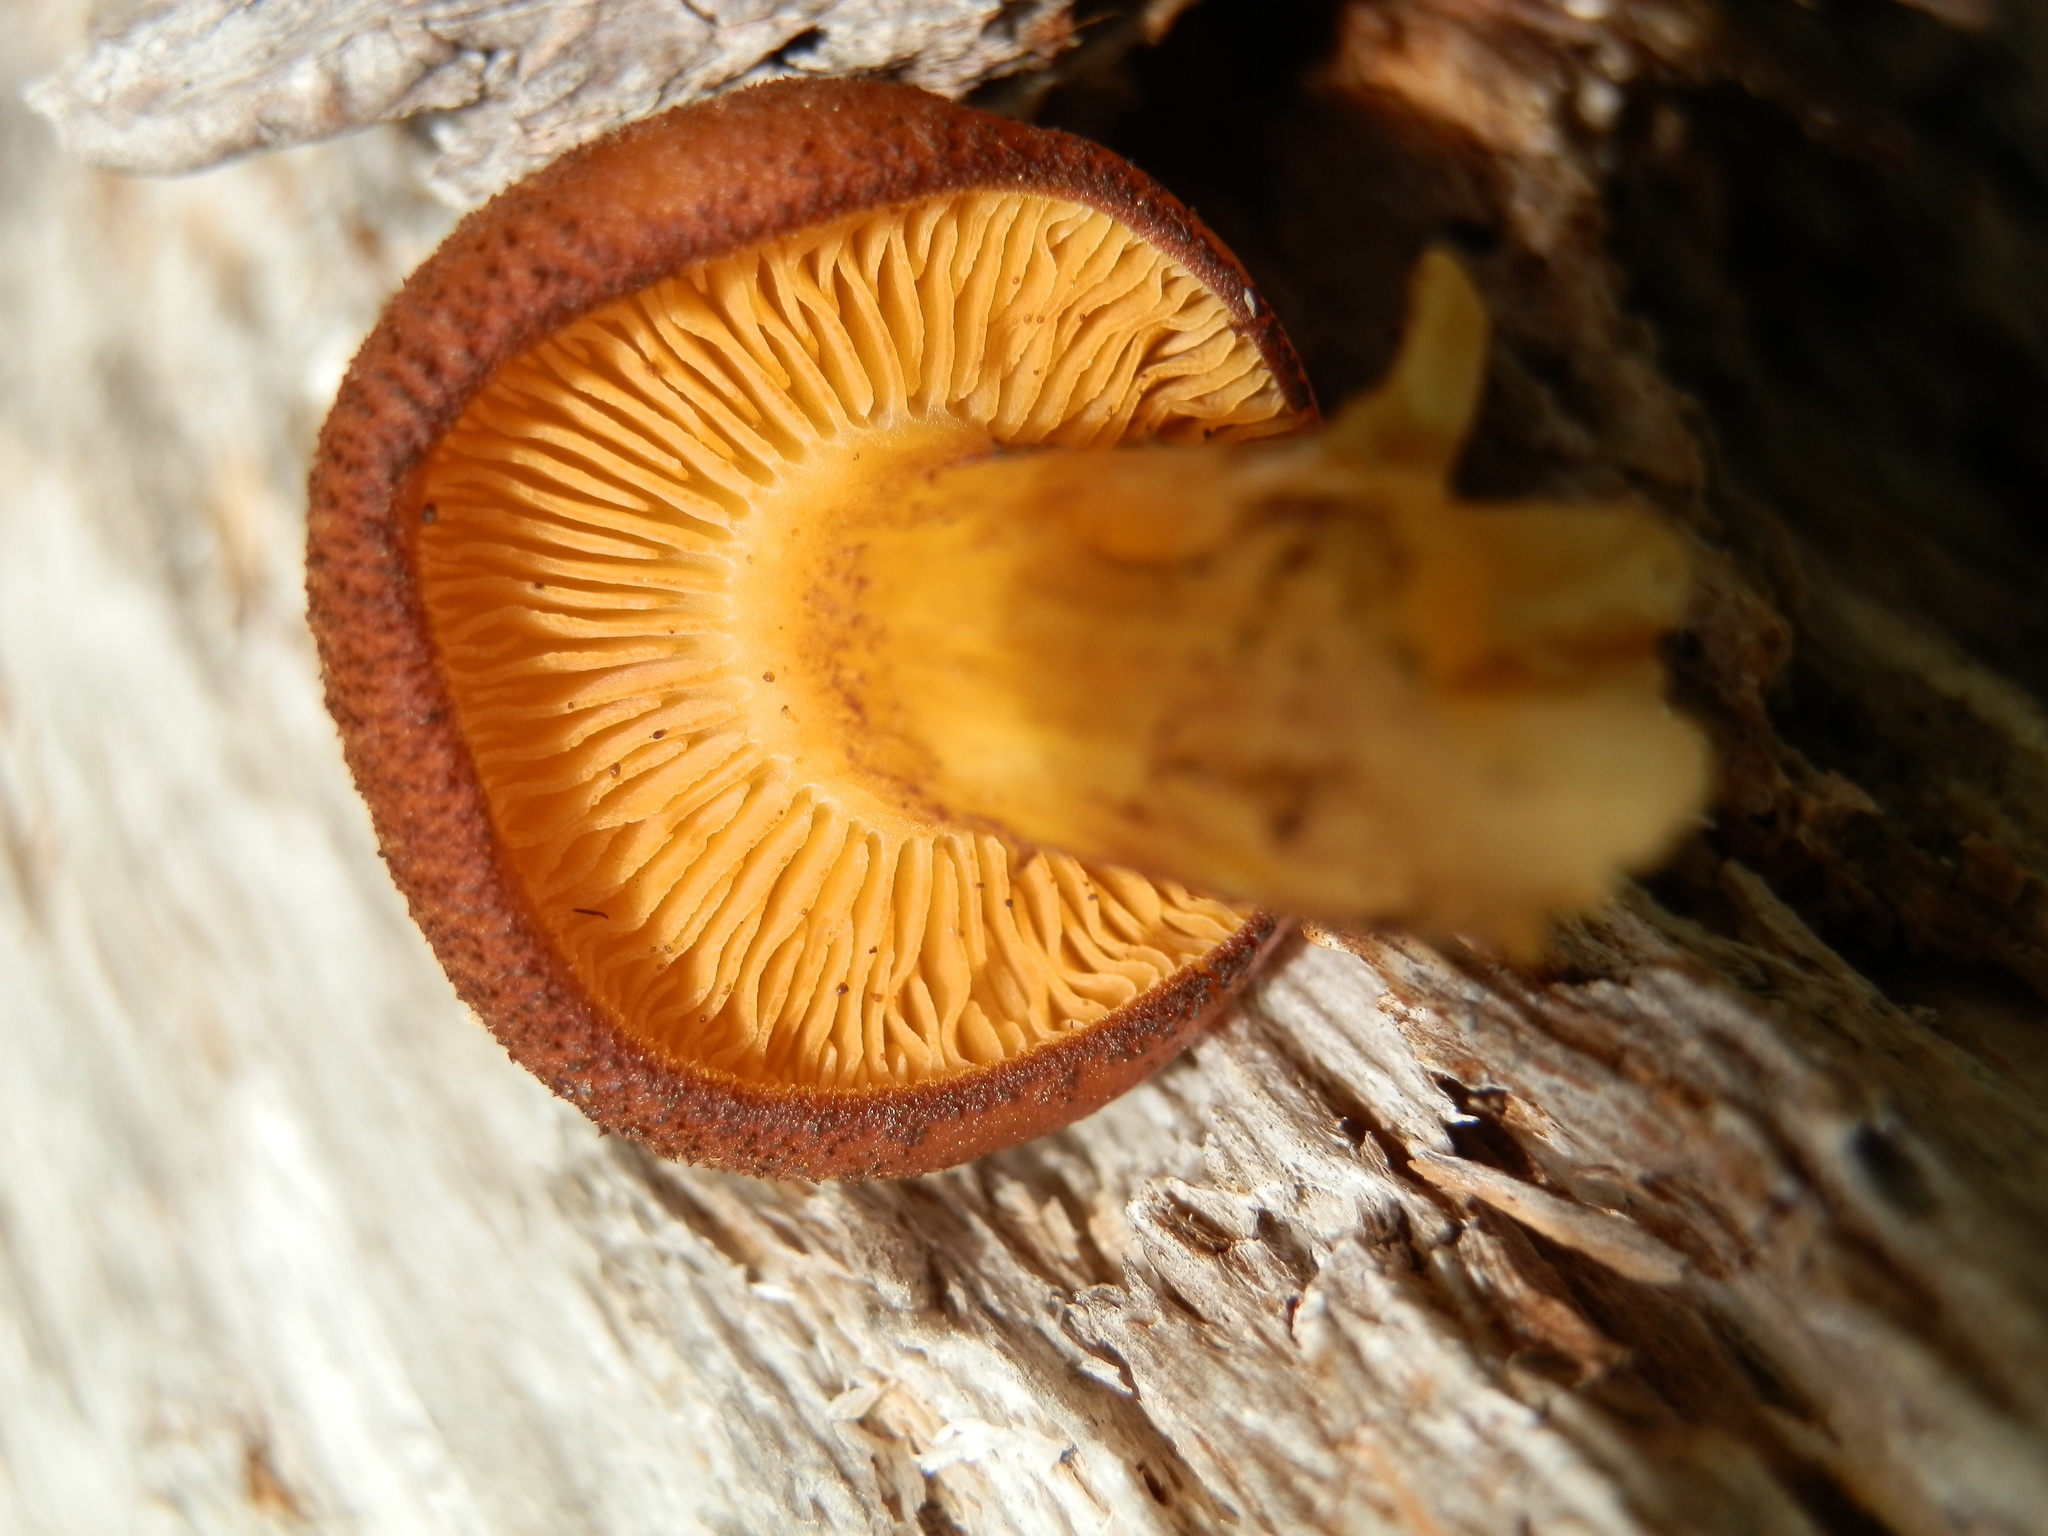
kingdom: Fungi
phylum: Basidiomycota
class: Agaricomycetes
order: Agaricales
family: Tricholomataceae
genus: Tricholomopsis
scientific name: Tricholomopsis decora
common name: Prunes and custard
